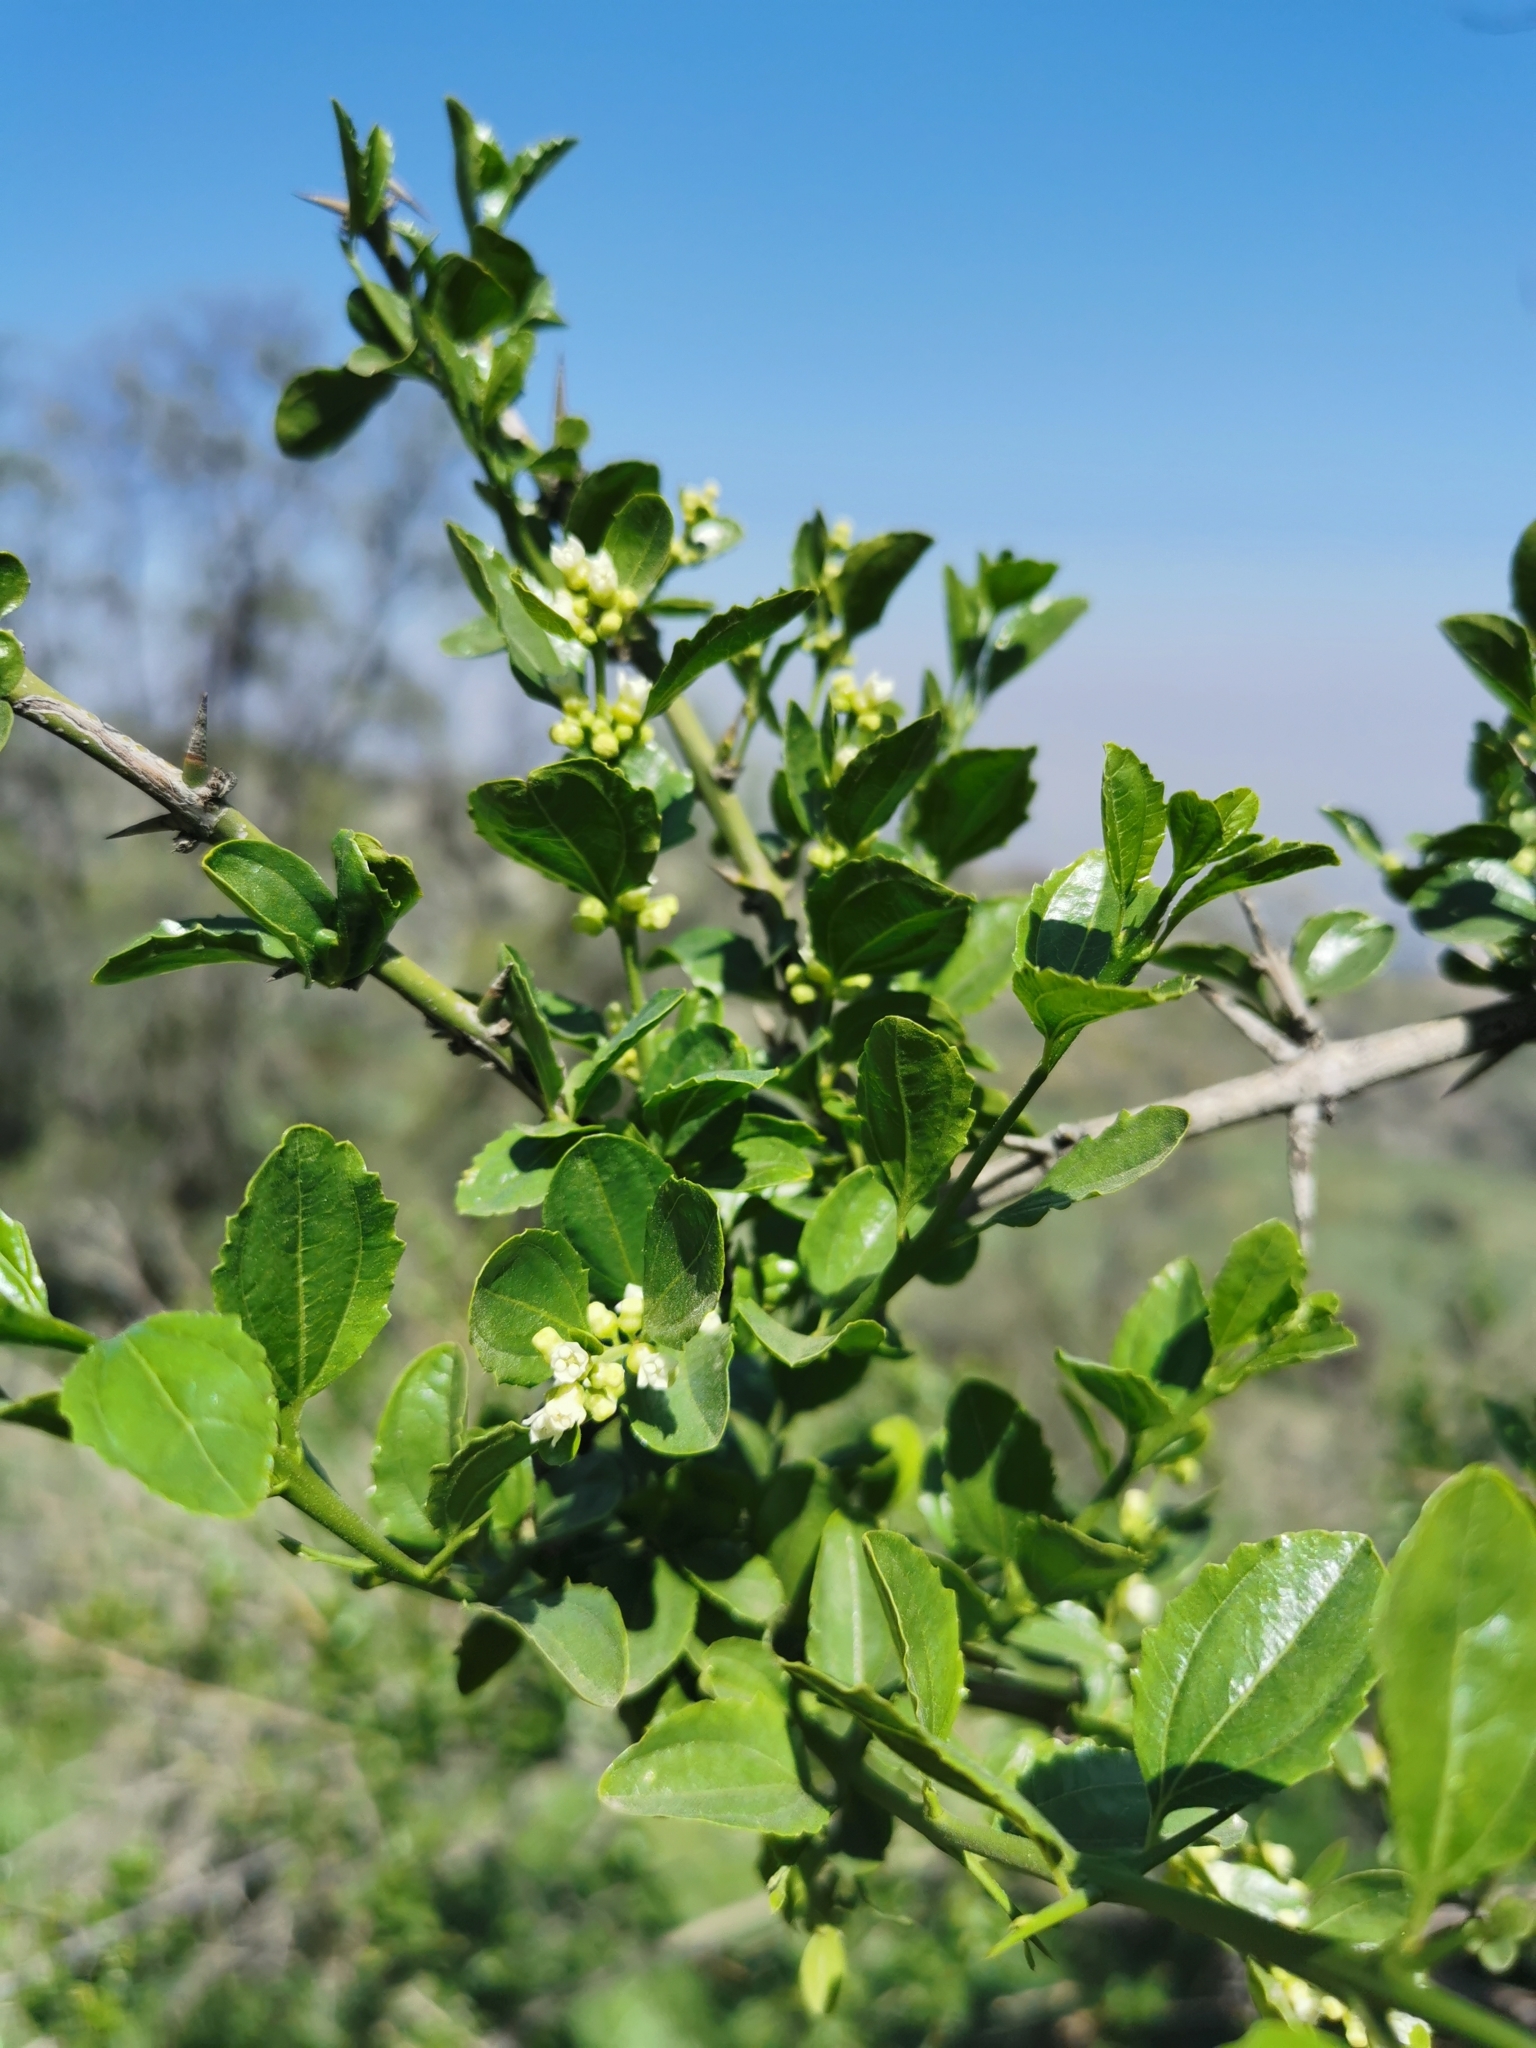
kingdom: Plantae
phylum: Tracheophyta
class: Magnoliopsida
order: Rosales
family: Rhamnaceae
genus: Retanilla
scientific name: Retanilla trinervia
